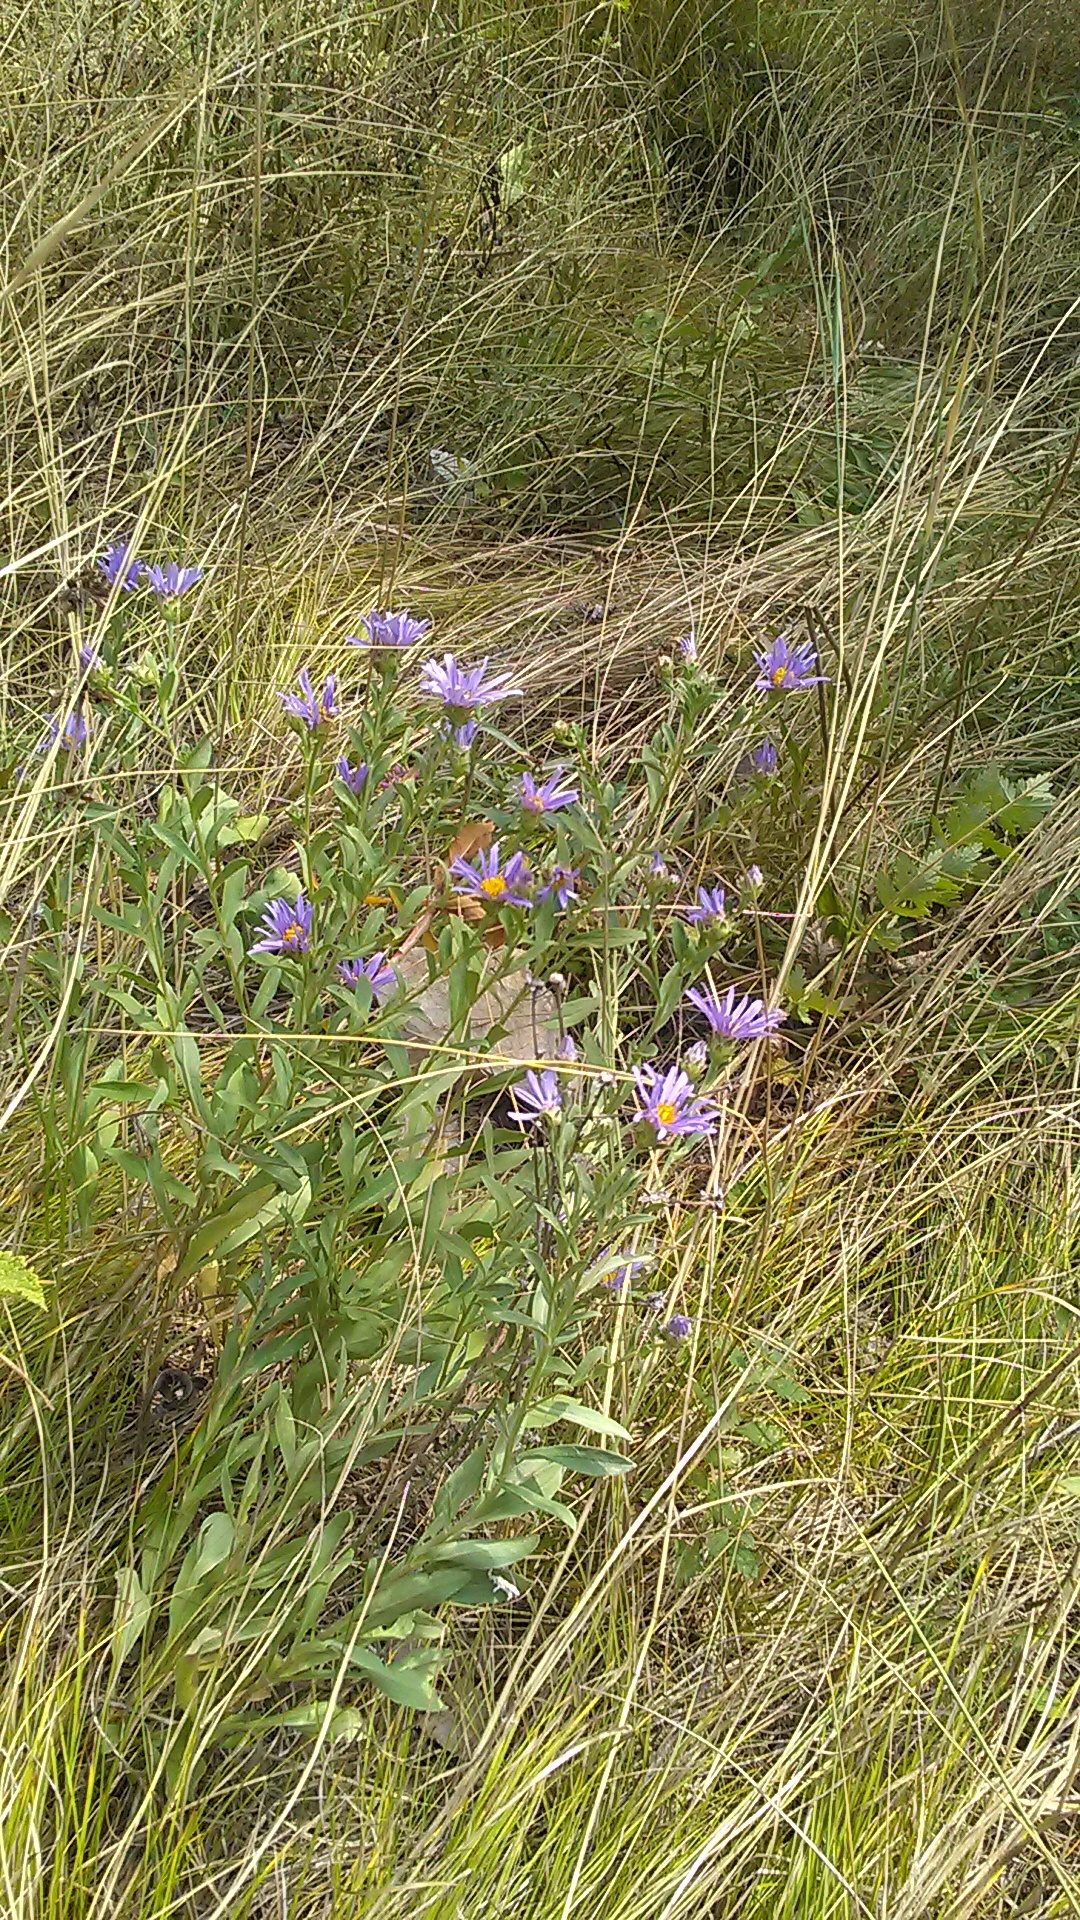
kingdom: Plantae
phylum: Tracheophyta
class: Magnoliopsida
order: Asterales
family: Asteraceae
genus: Aster
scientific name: Aster amellus
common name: European michaelmas daisy
